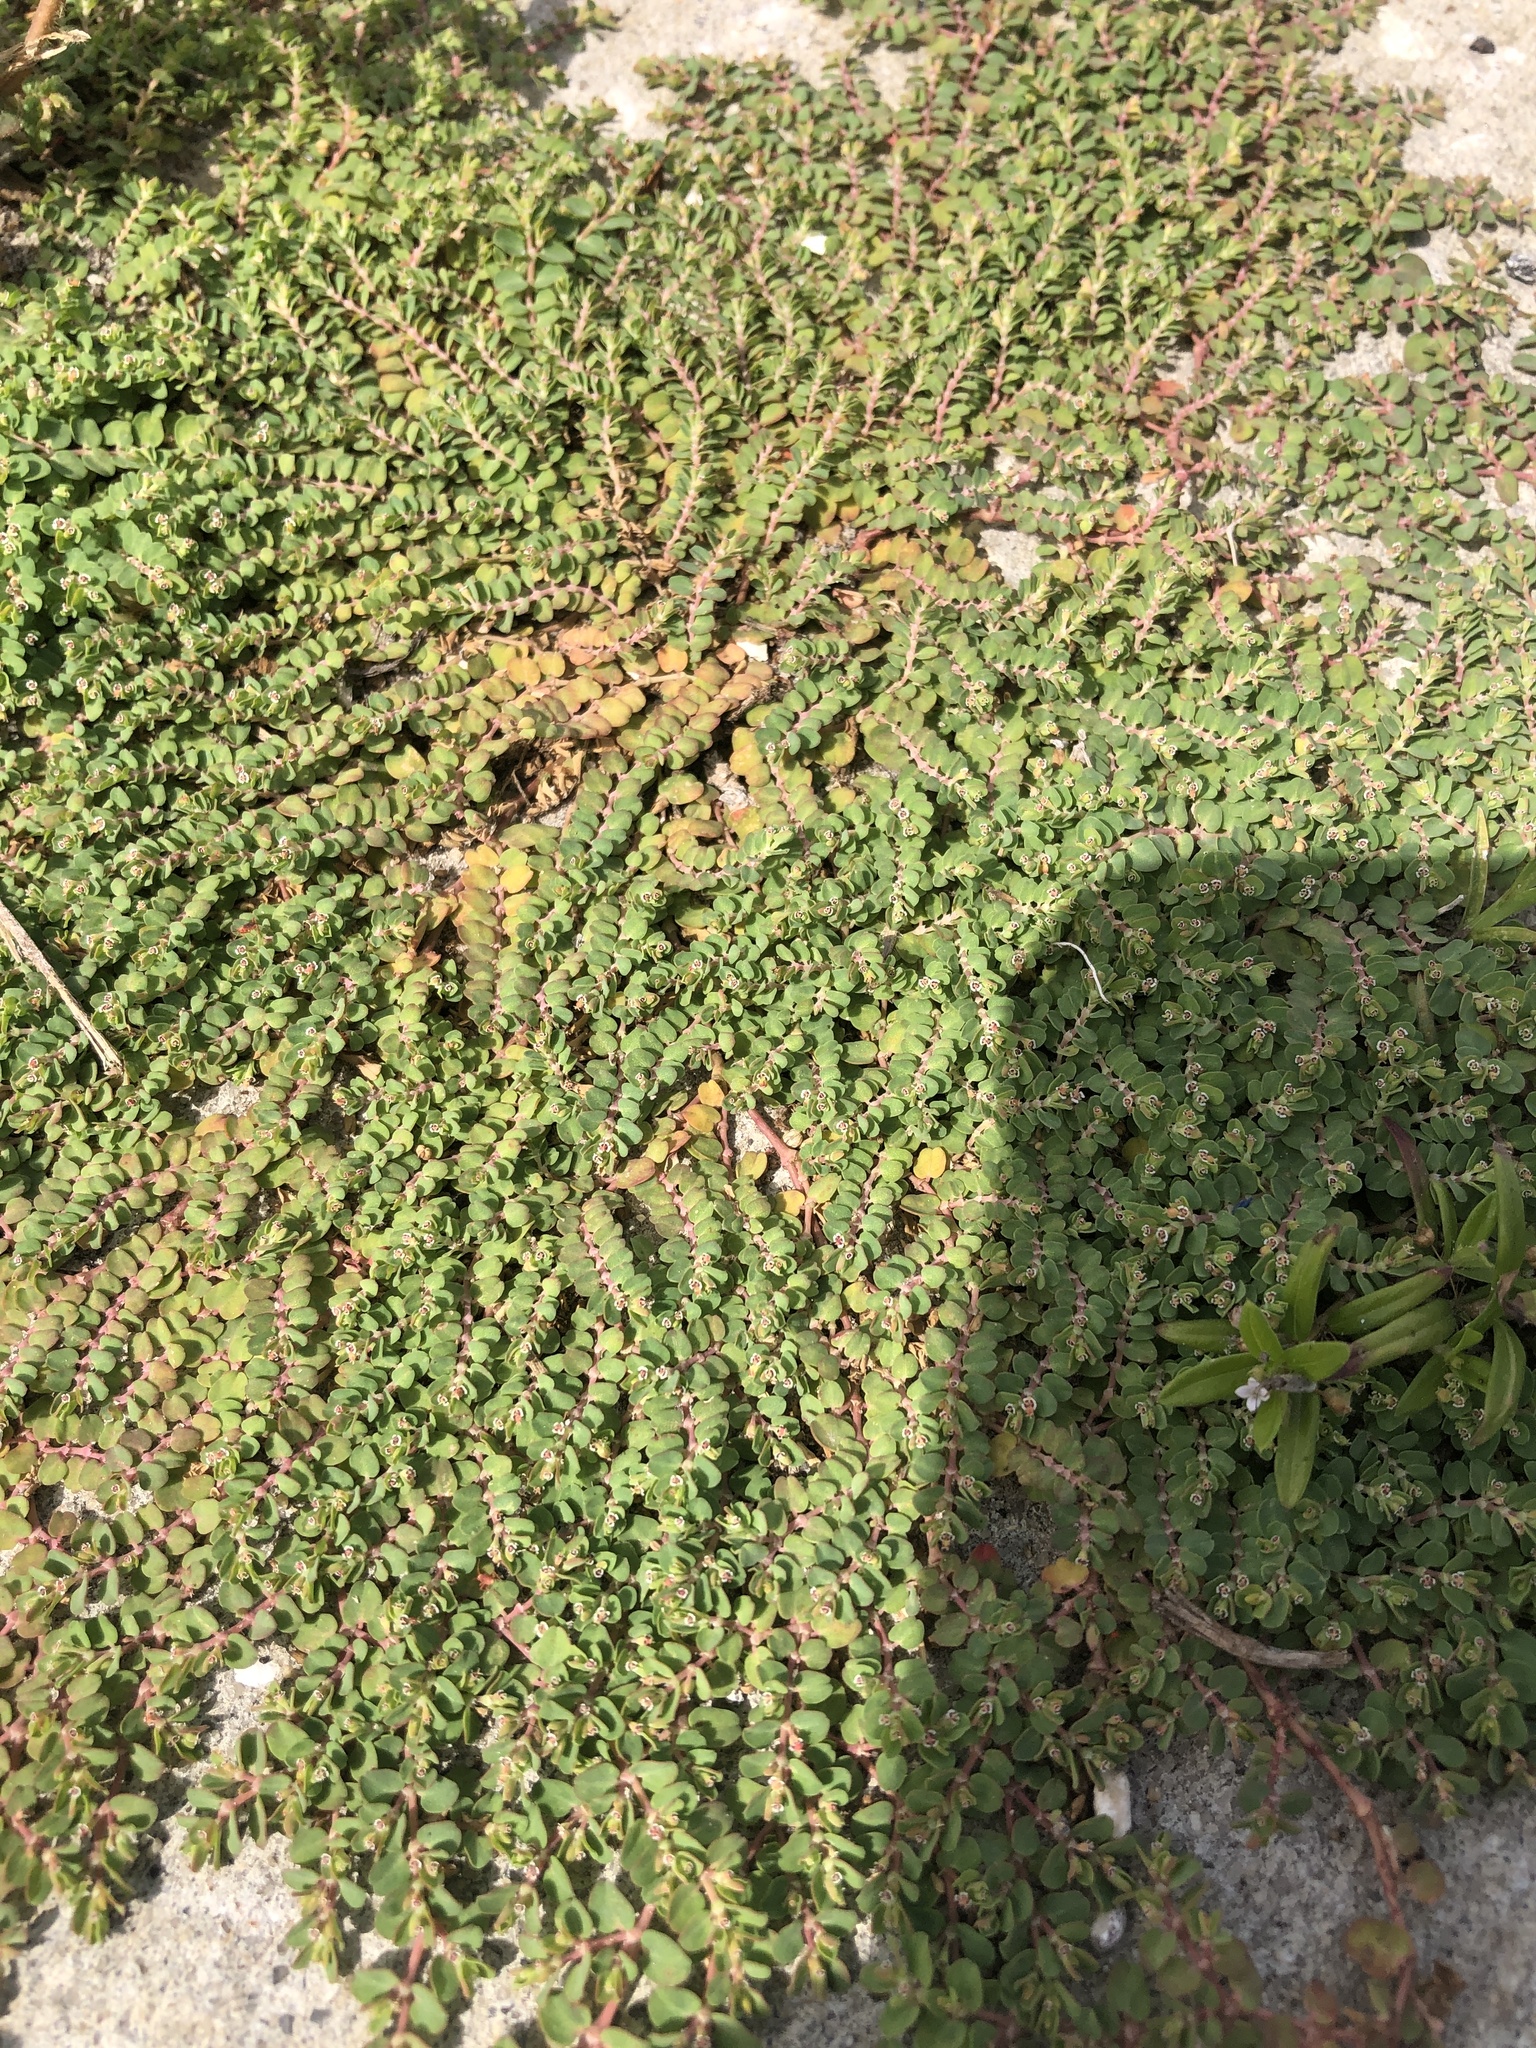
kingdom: Plantae
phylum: Tracheophyta
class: Magnoliopsida
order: Malpighiales
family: Euphorbiaceae
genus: Euphorbia
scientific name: Euphorbia serpens
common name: Matted sandmat
